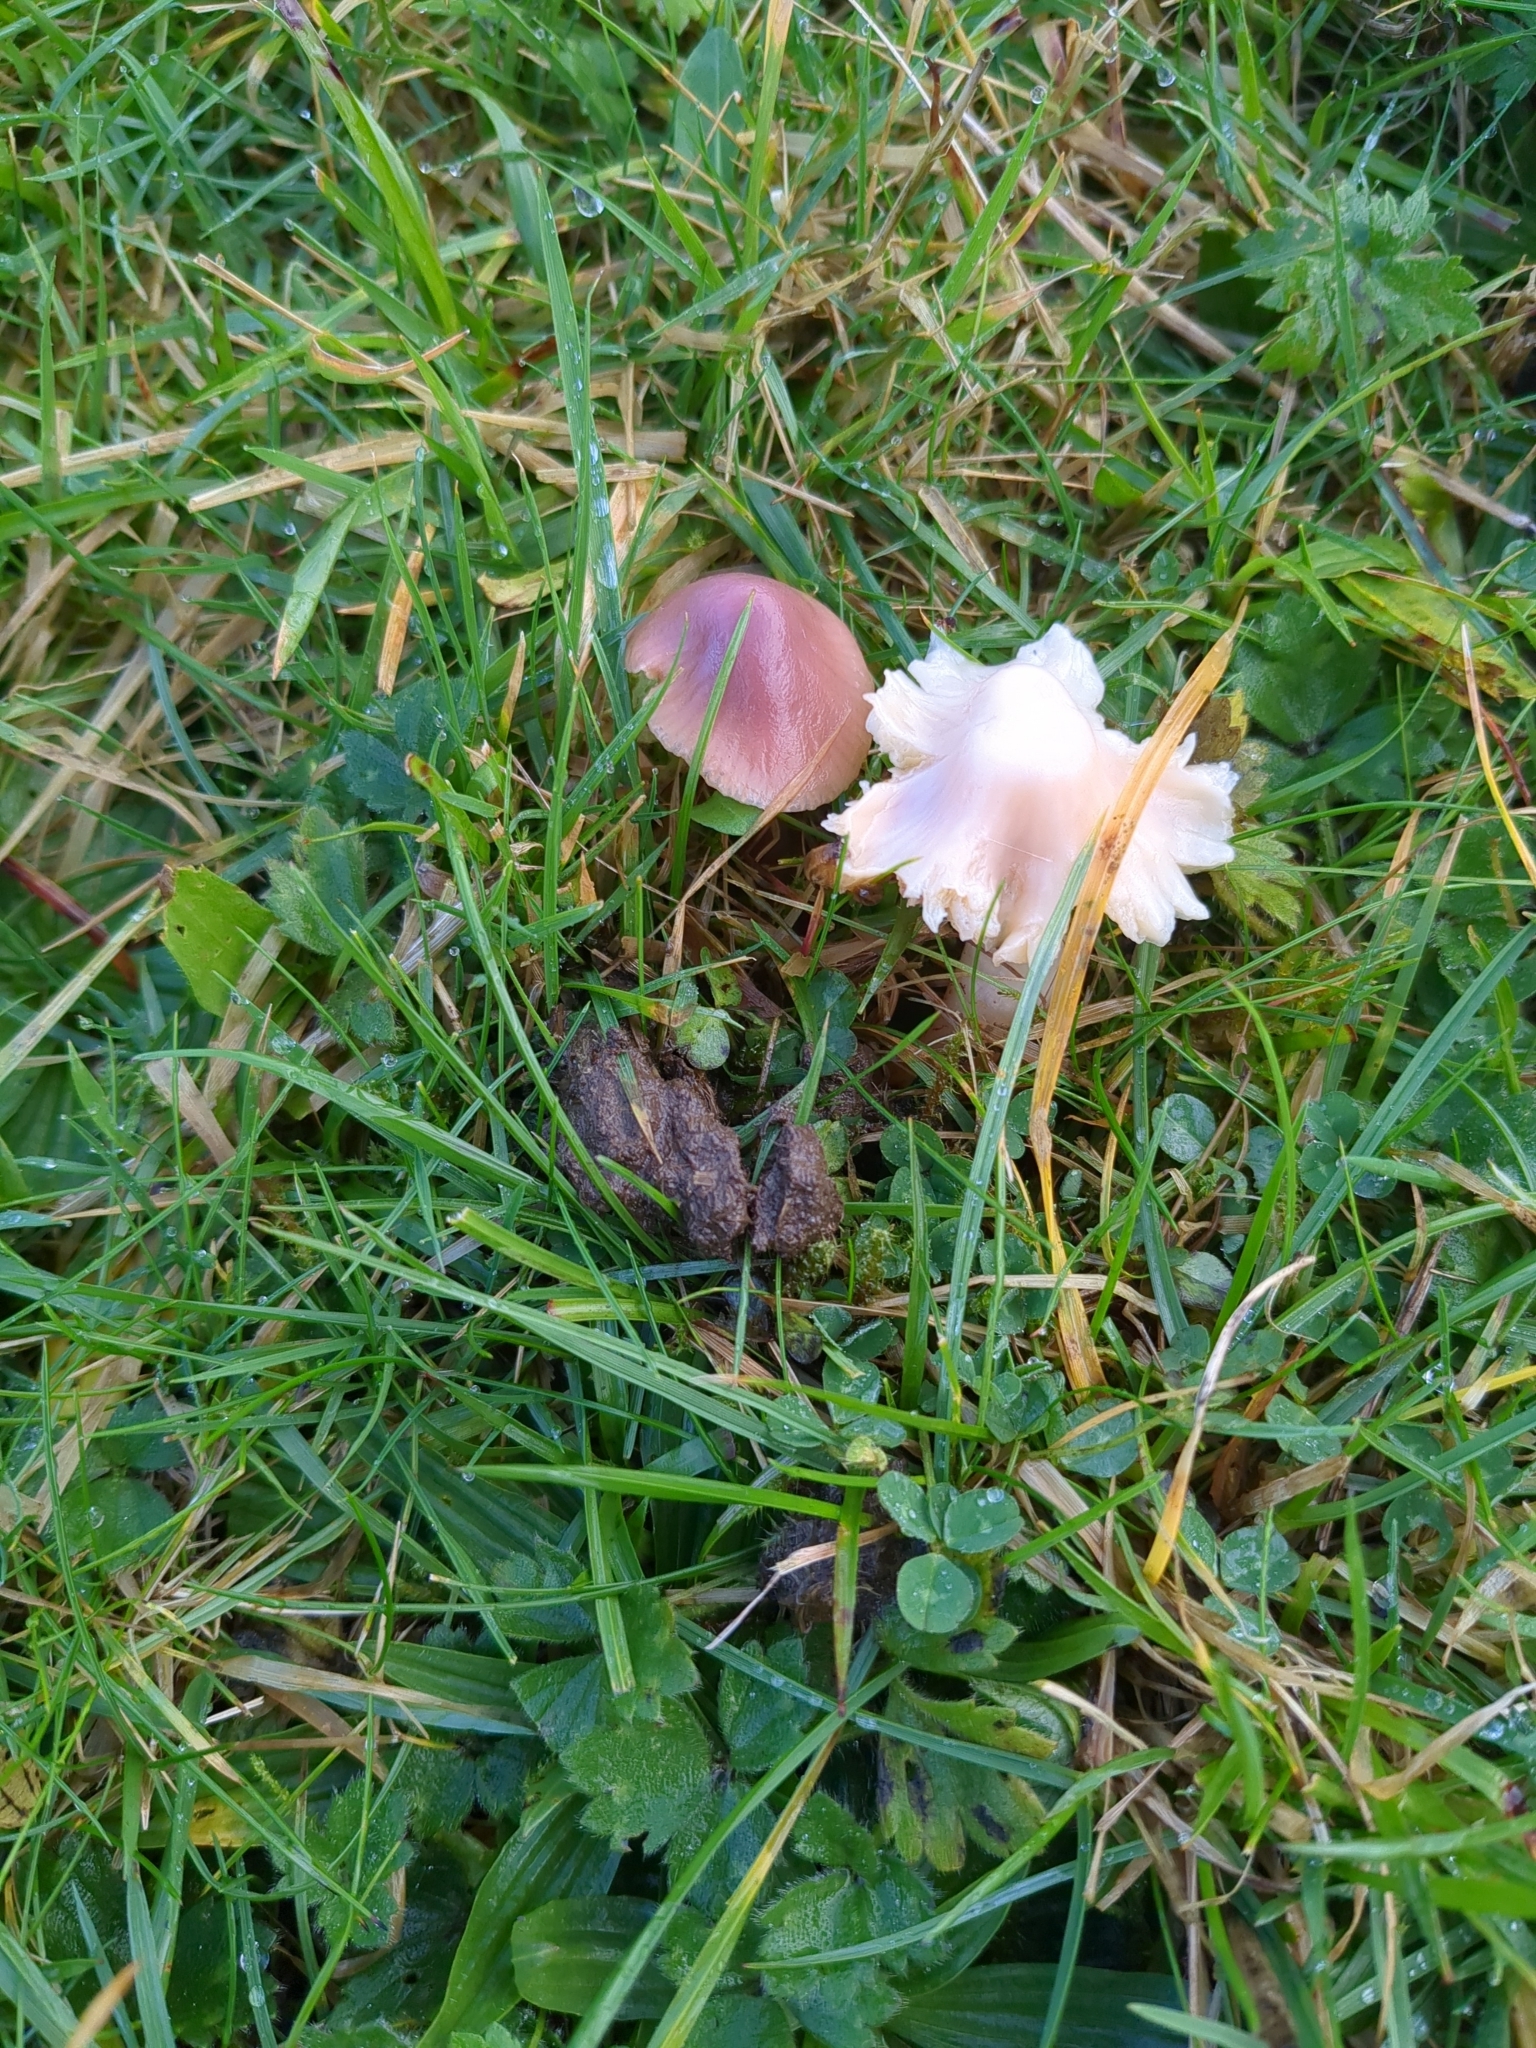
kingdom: Fungi
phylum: Basidiomycota
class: Agaricomycetes
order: Agaricales
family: Hygrophoraceae
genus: Gliophorus
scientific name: Gliophorus reginae
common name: Jubilee waxcap
